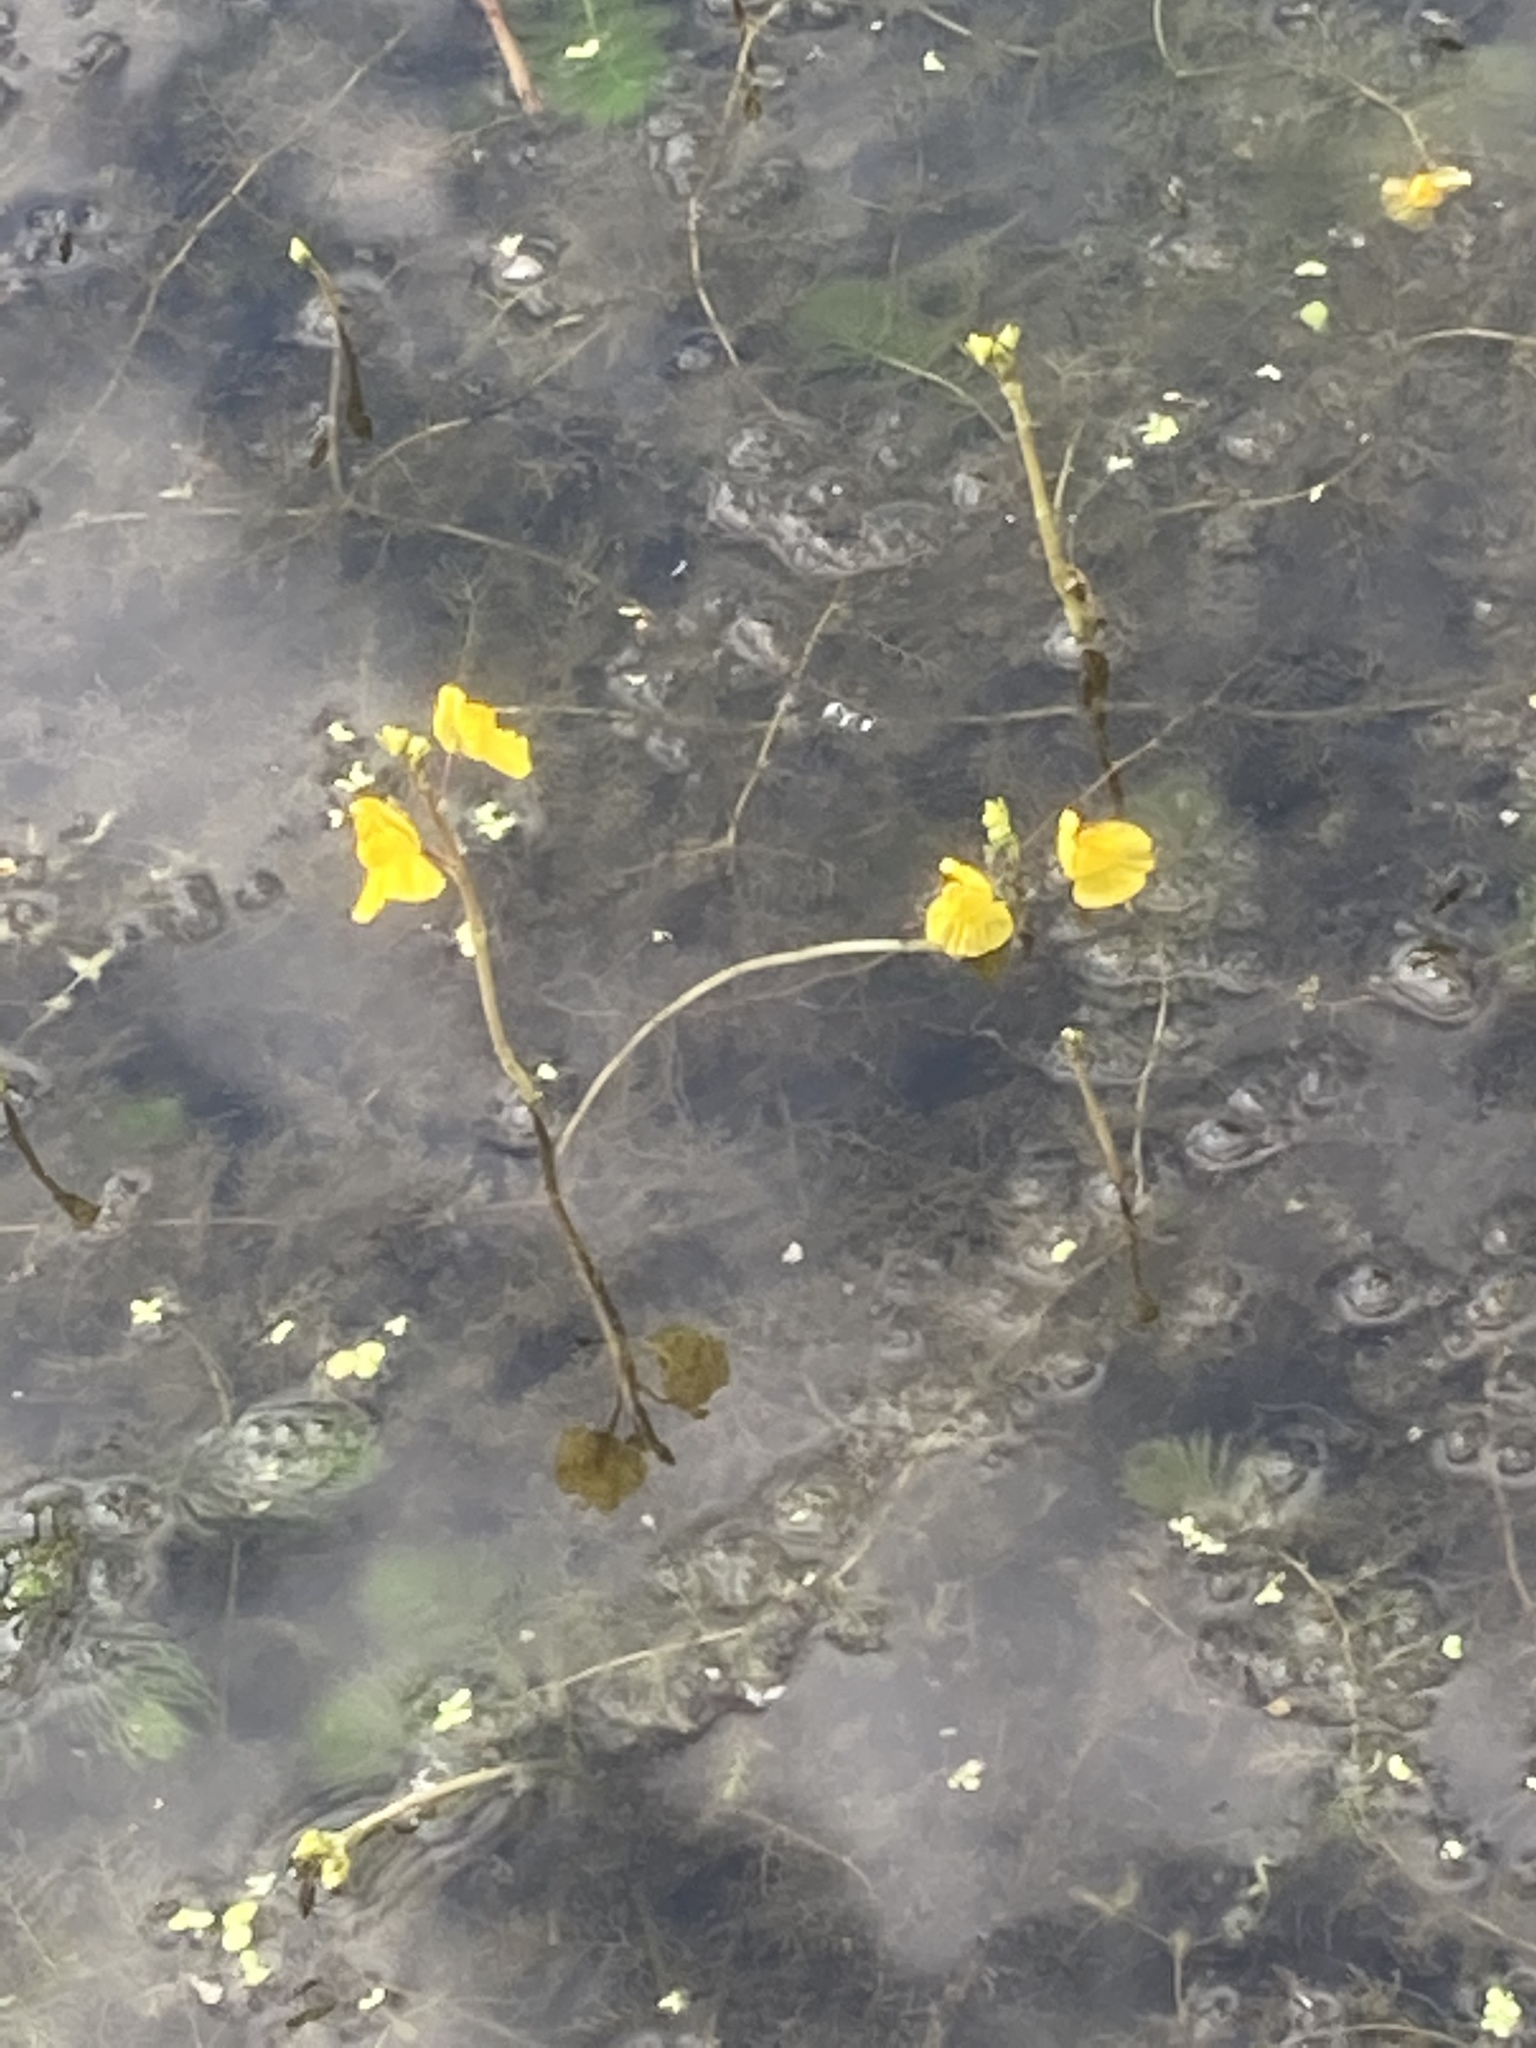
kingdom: Plantae
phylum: Tracheophyta
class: Magnoliopsida
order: Lamiales
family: Lentibulariaceae
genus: Utricularia
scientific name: Utricularia australis
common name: Bladderwort
